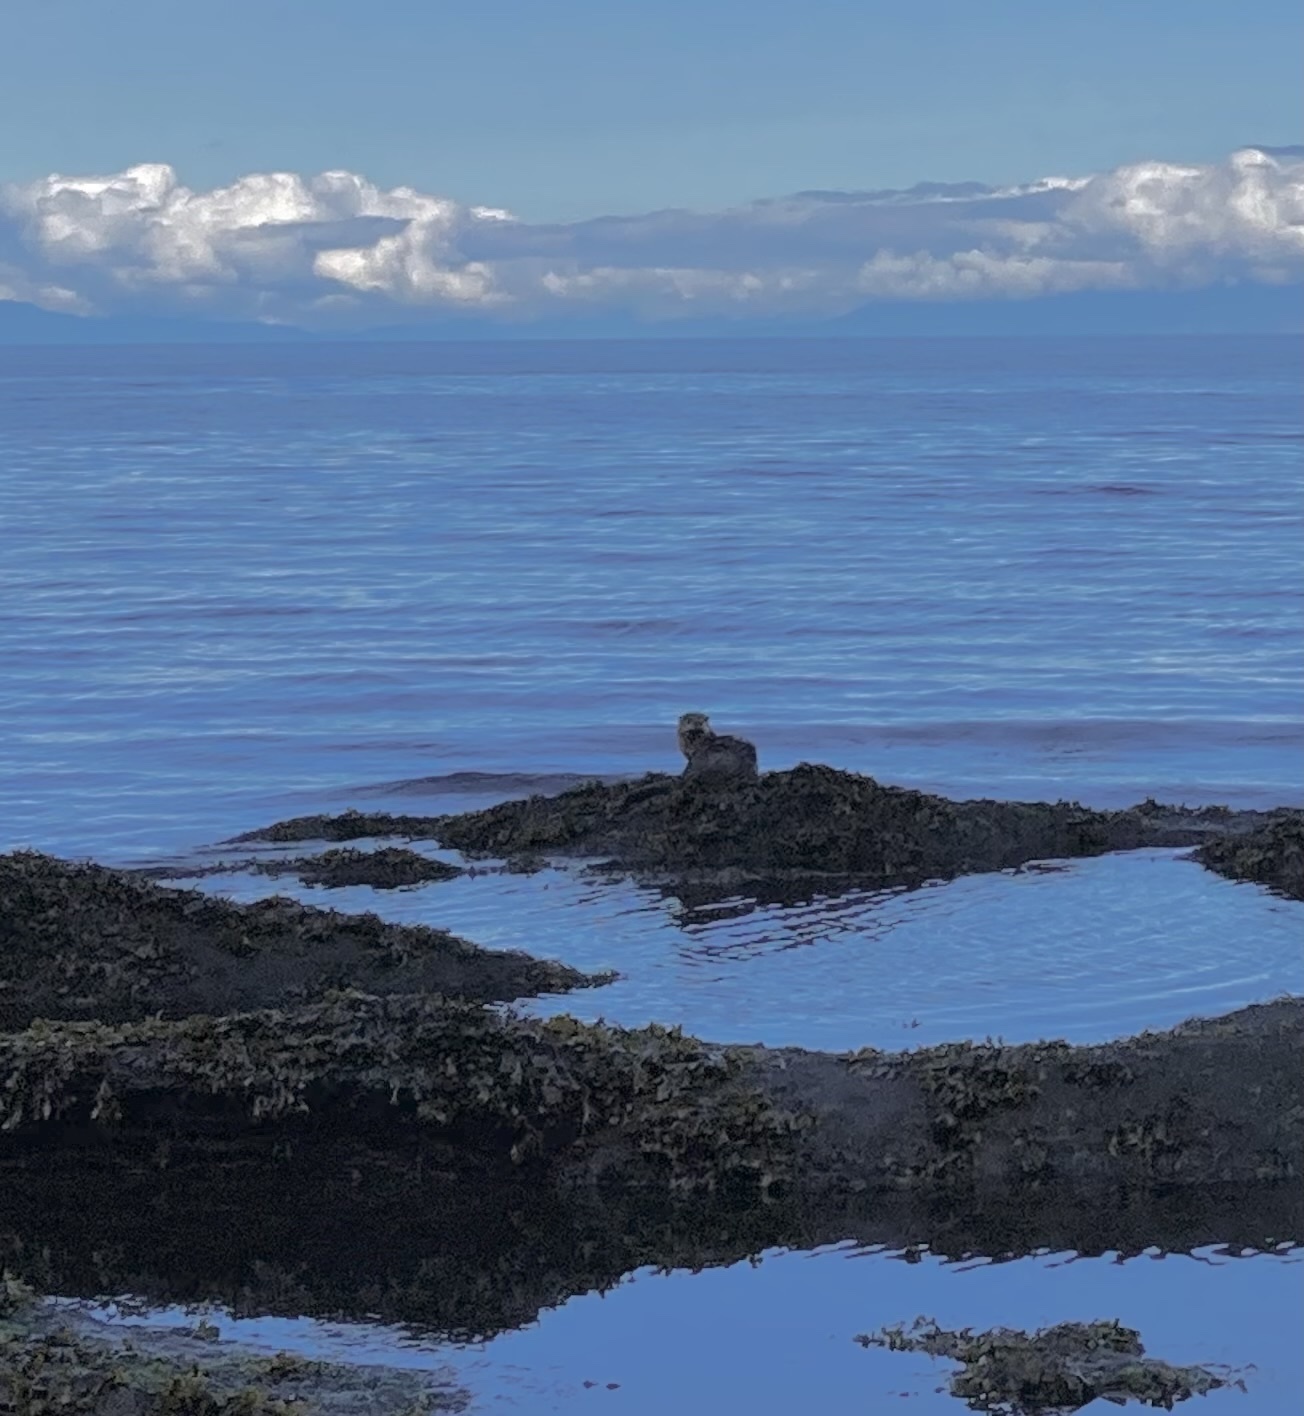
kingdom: Animalia
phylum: Chordata
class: Mammalia
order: Carnivora
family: Mustelidae
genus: Lontra
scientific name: Lontra canadensis
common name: North american river otter
